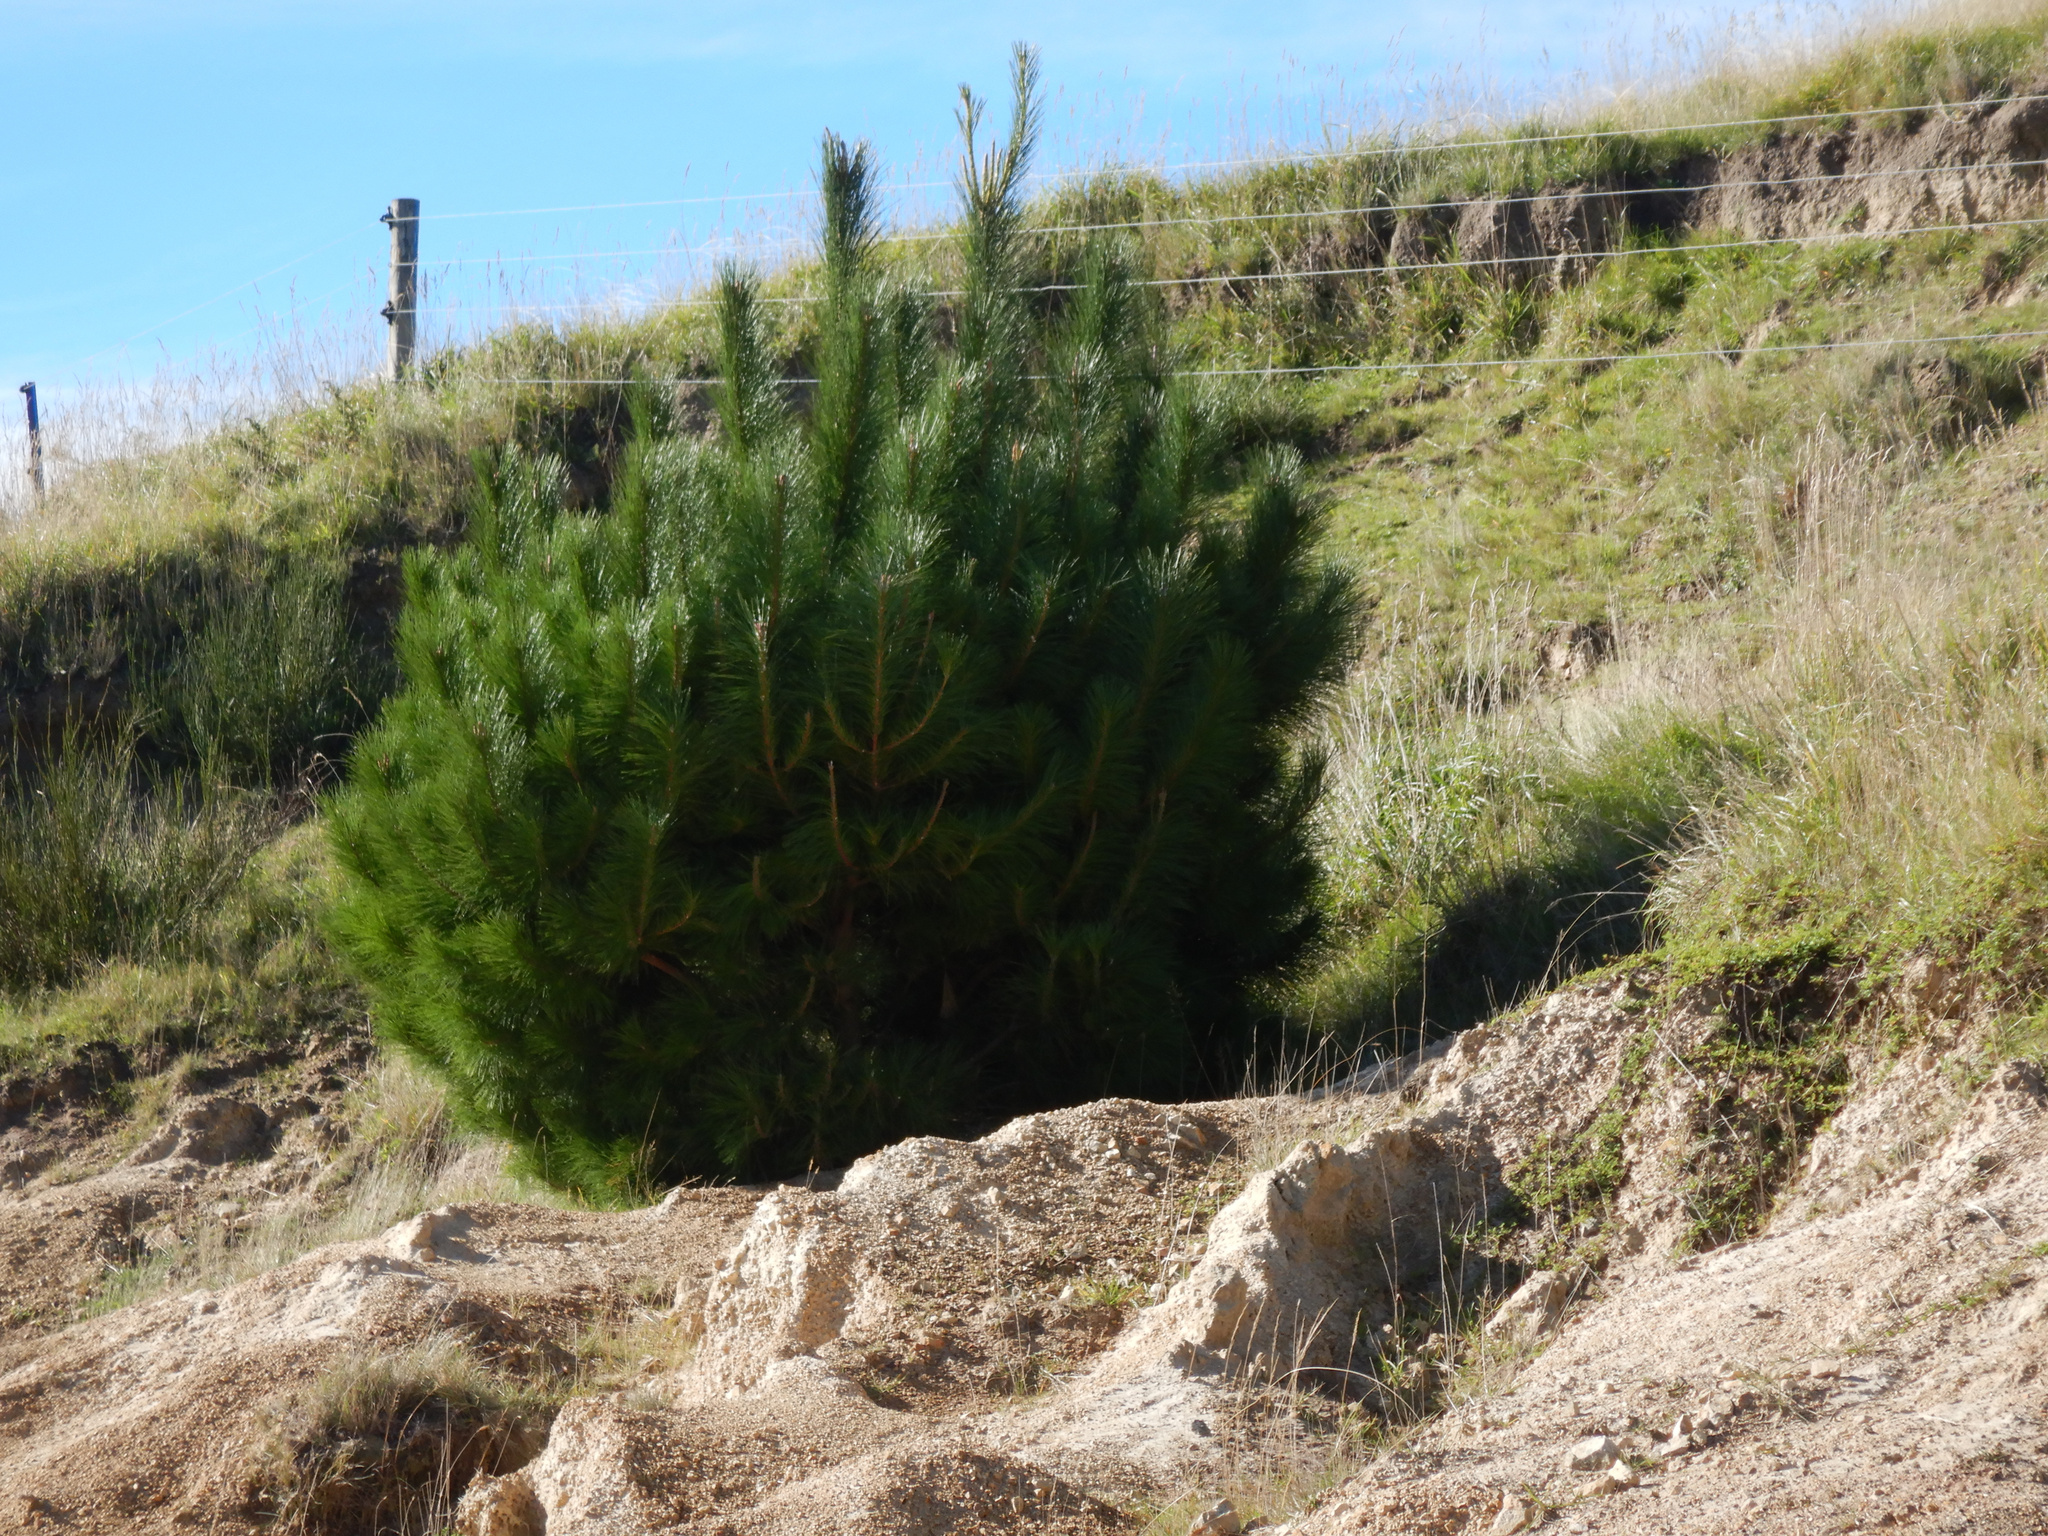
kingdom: Plantae
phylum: Tracheophyta
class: Pinopsida
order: Pinales
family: Pinaceae
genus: Pinus
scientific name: Pinus radiata
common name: Monterey pine
